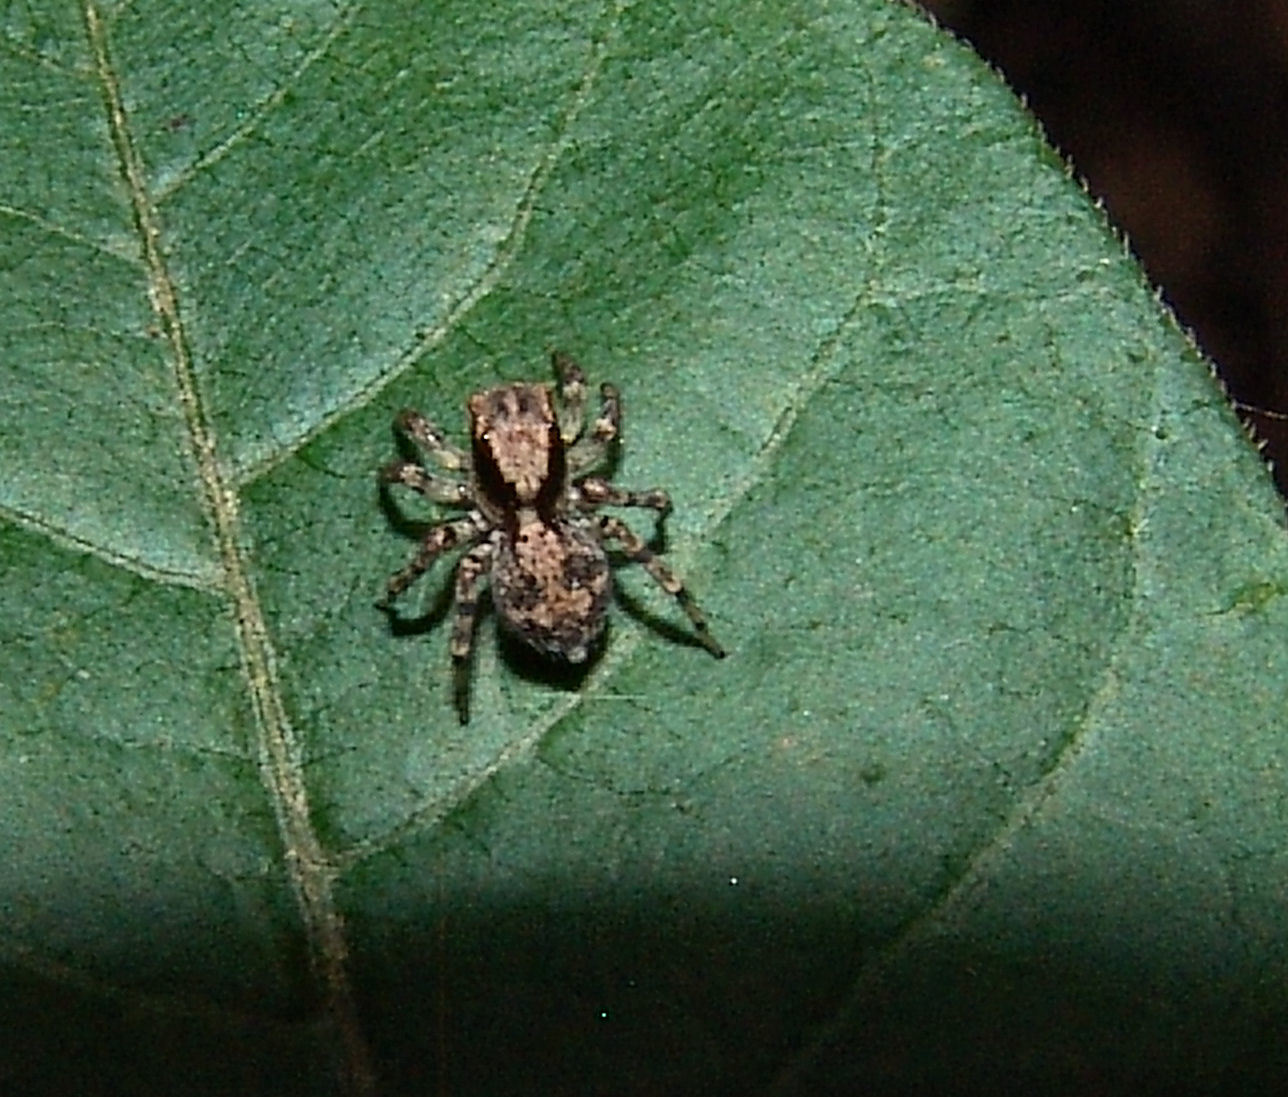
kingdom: Animalia
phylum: Arthropoda
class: Arachnida
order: Araneae
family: Salticidae
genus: Naphrys
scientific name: Naphrys pulex
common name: Flea jumping spider
